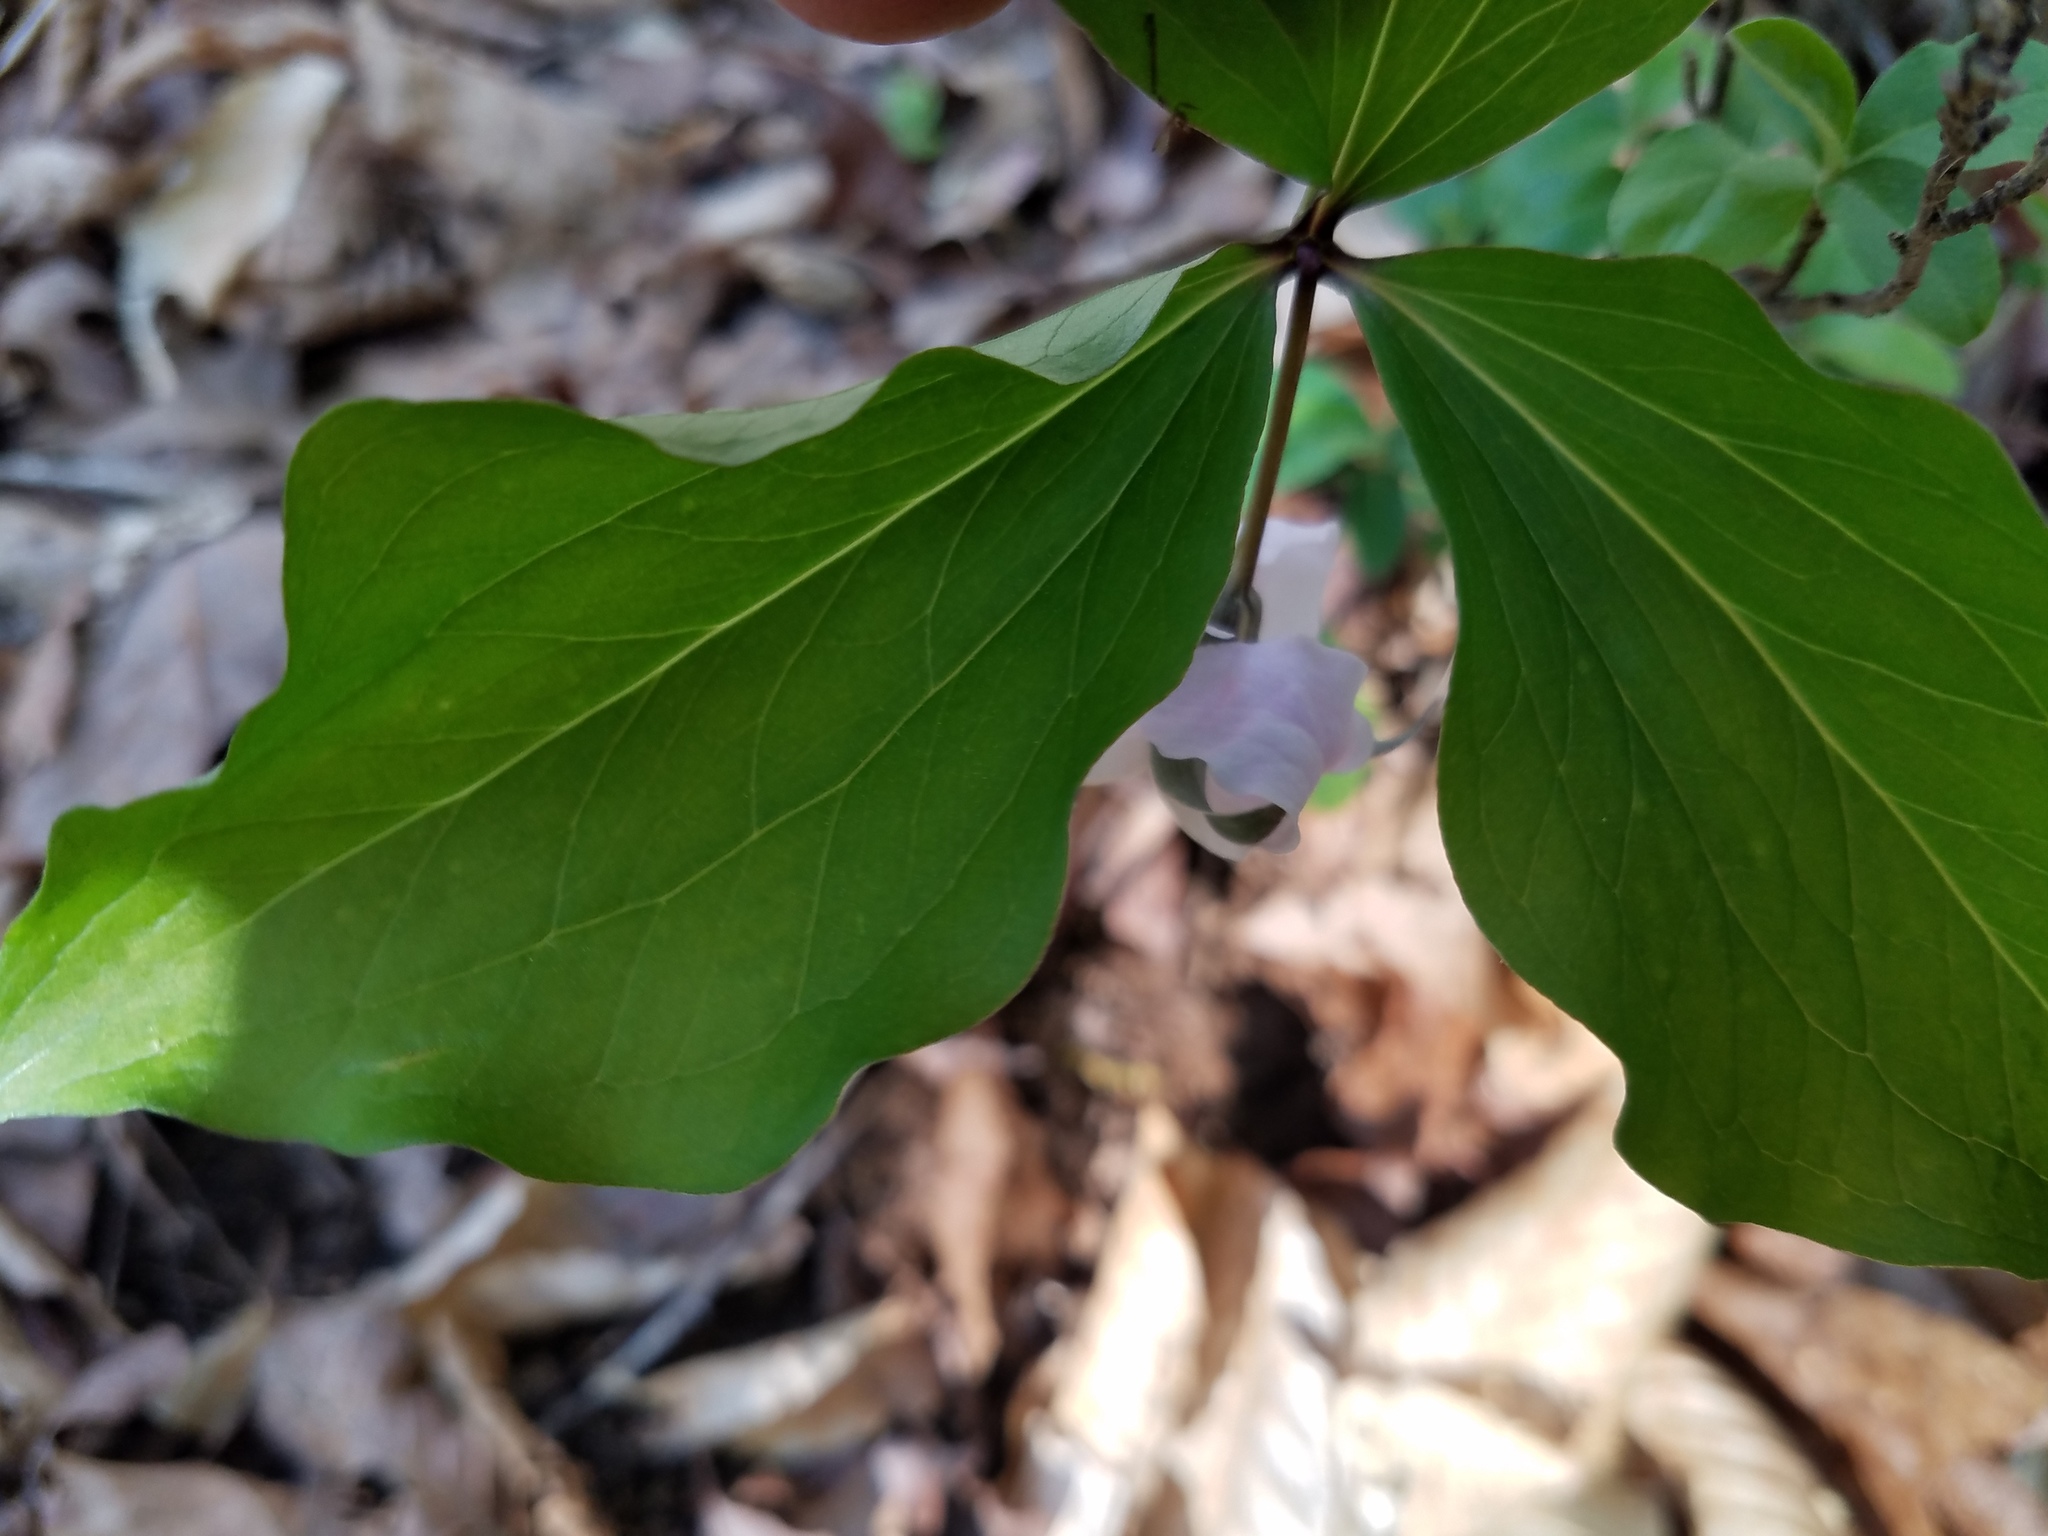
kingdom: Plantae
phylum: Tracheophyta
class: Liliopsida
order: Liliales
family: Melanthiaceae
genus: Trillium
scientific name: Trillium catesbaei
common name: Bashful trillium
